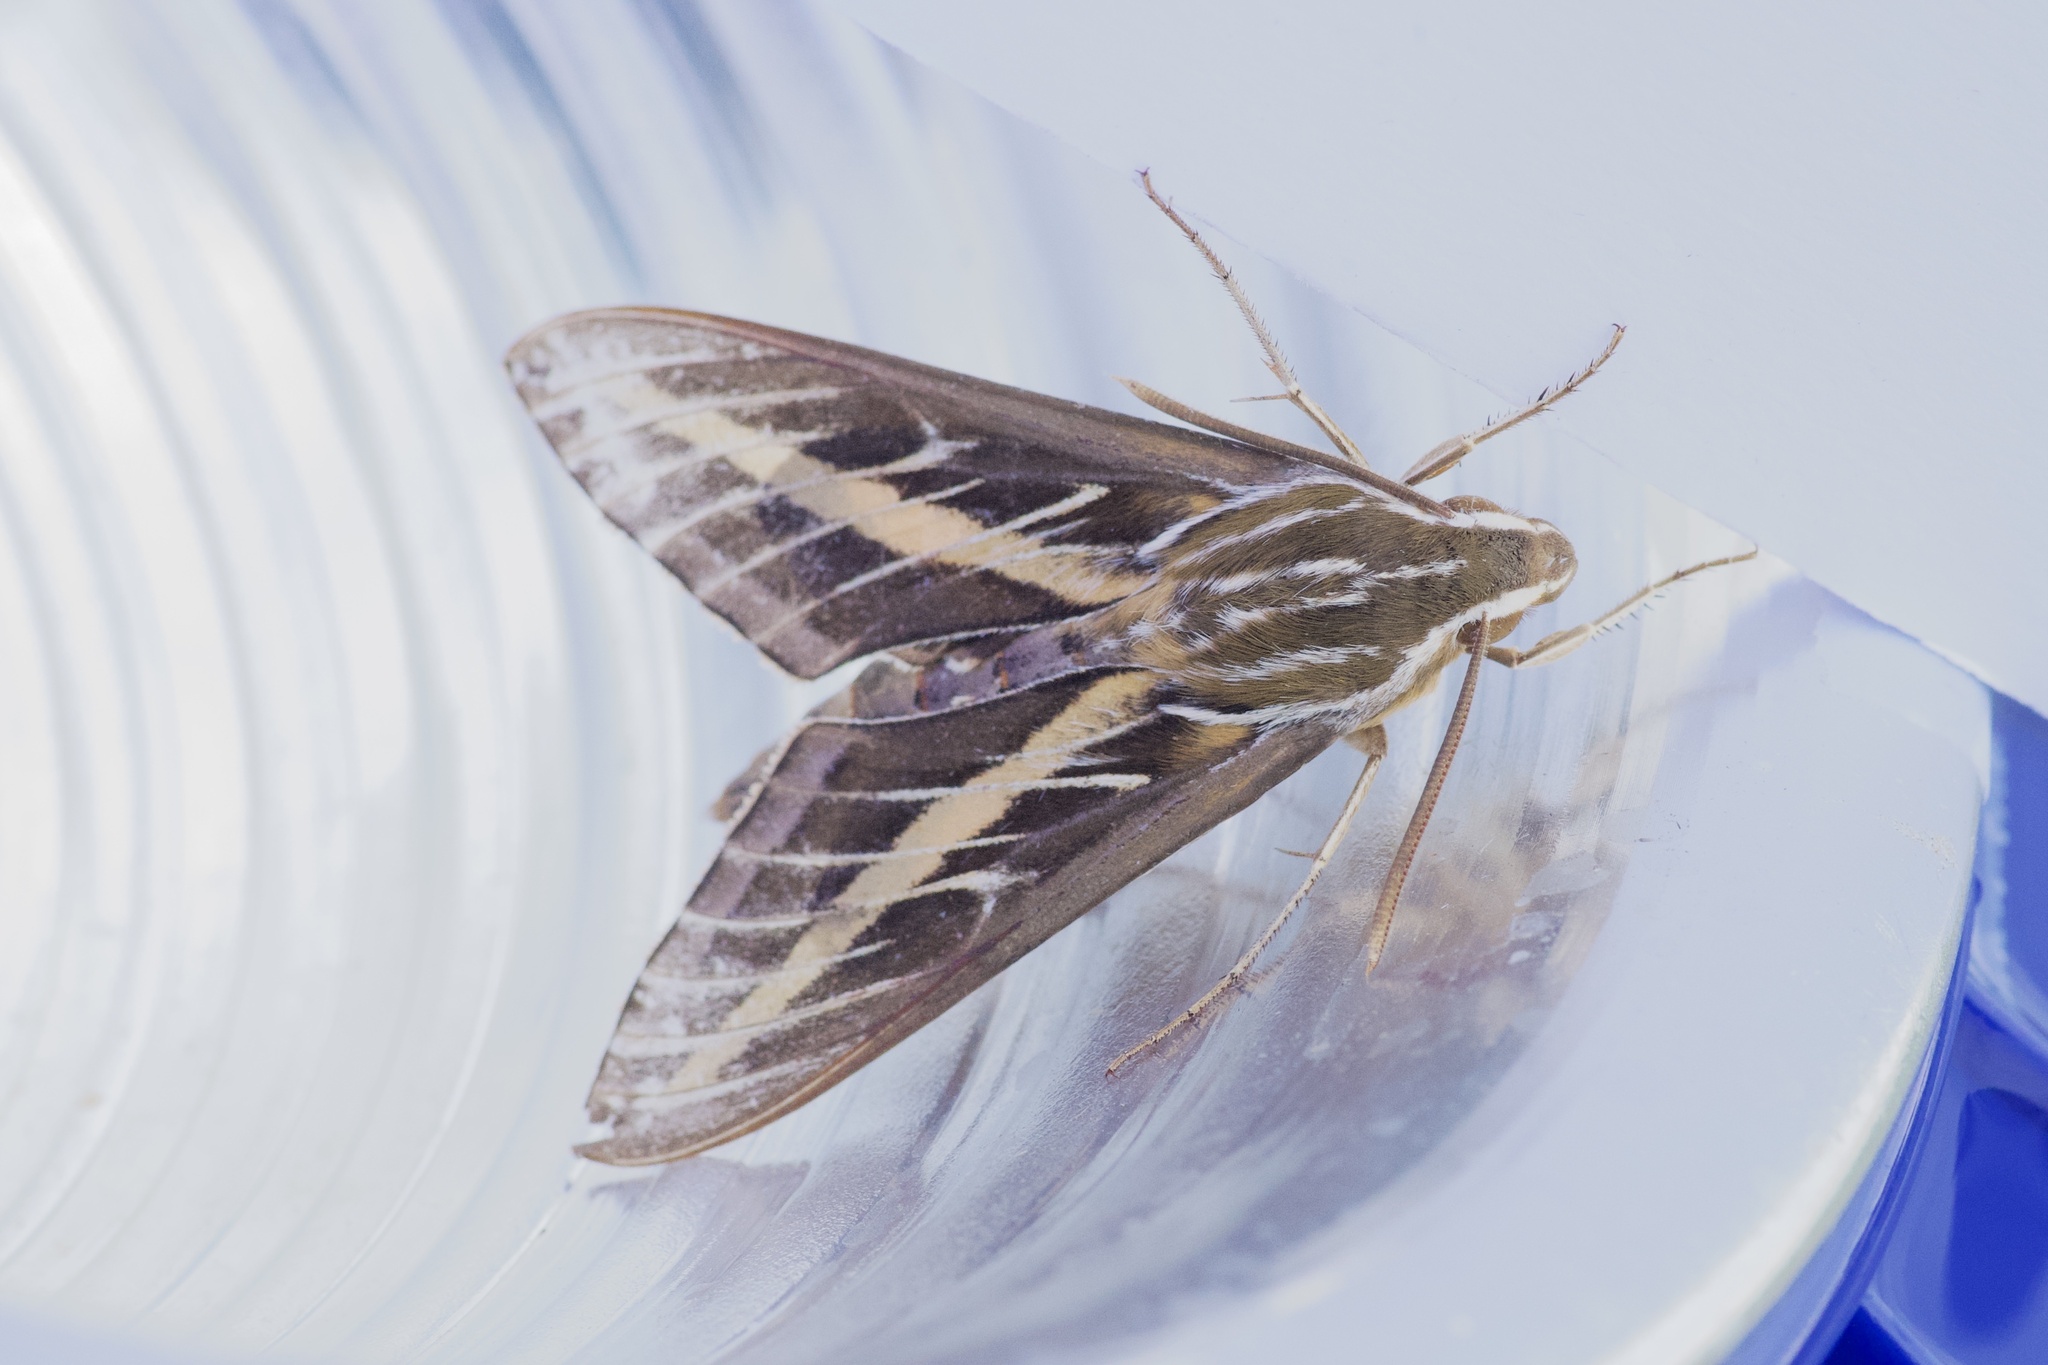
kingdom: Animalia
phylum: Arthropoda
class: Insecta
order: Lepidoptera
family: Sphingidae
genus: Hyles
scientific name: Hyles lineata
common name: White-lined sphinx
